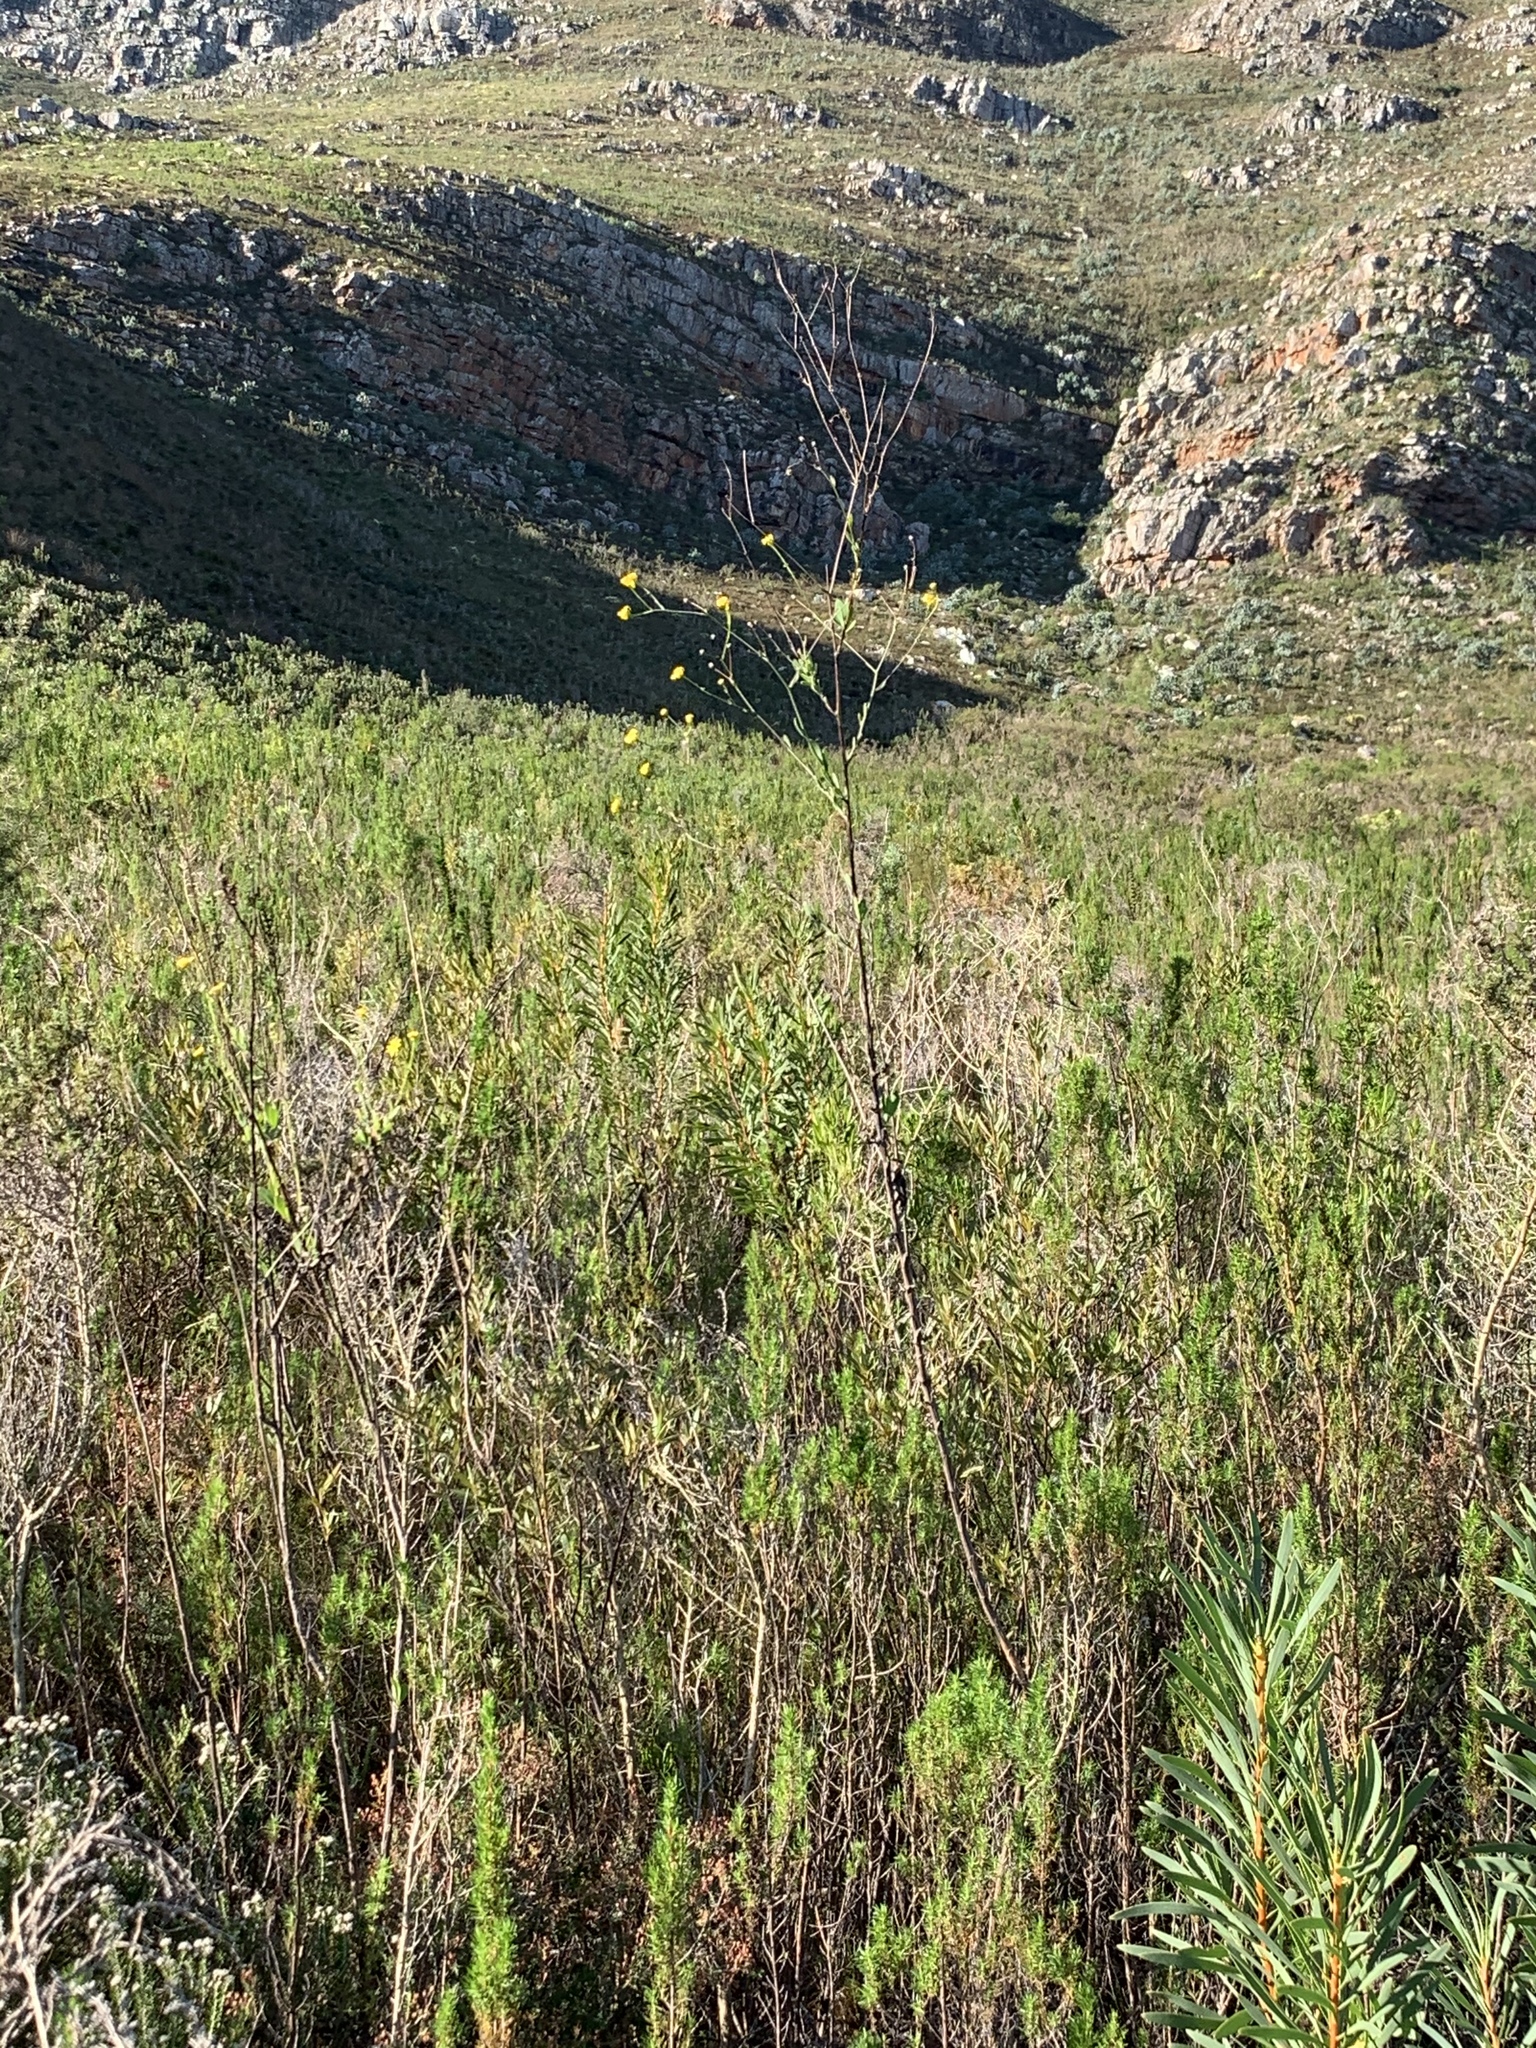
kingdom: Plantae
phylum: Tracheophyta
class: Magnoliopsida
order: Asterales
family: Asteraceae
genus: Othonna
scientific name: Othonna quinquedentata
